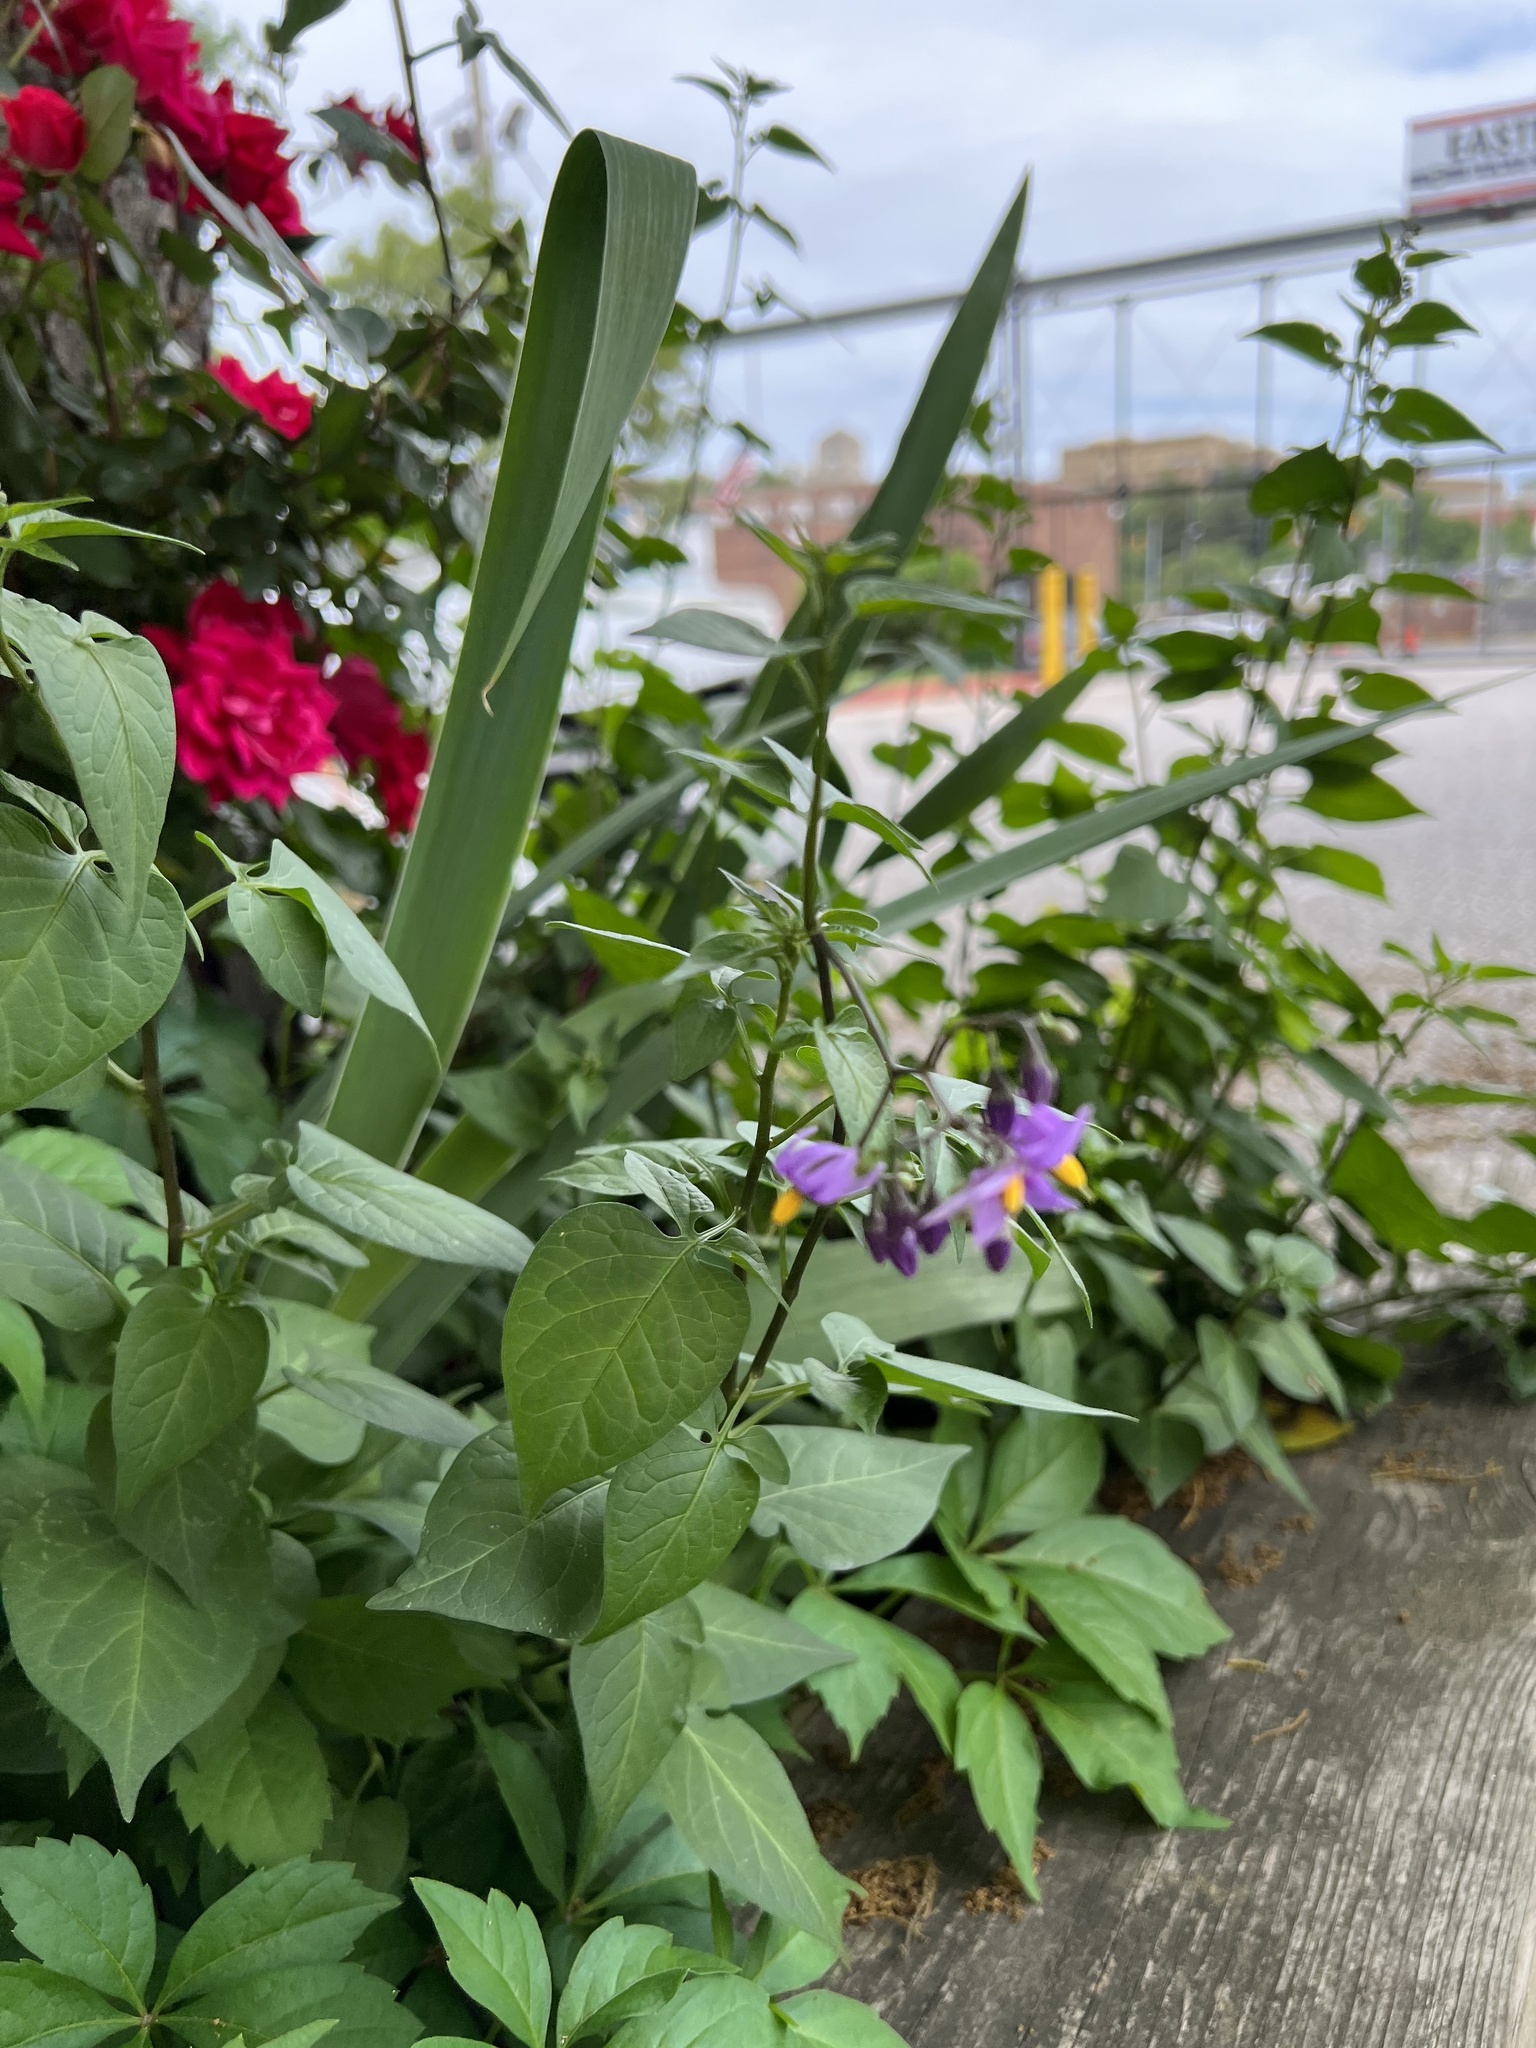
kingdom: Plantae
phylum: Tracheophyta
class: Magnoliopsida
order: Solanales
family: Solanaceae
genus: Solanum
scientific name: Solanum dulcamara
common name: Climbing nightshade
